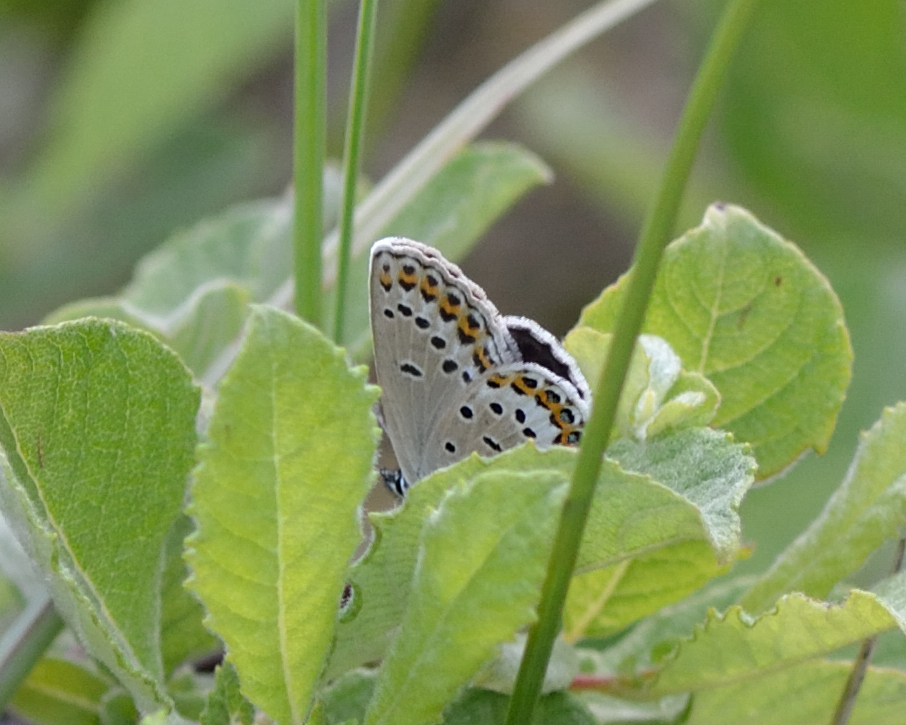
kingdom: Animalia
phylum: Arthropoda
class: Insecta
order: Lepidoptera
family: Lycaenidae
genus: Lycaeides
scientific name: Lycaeides idas
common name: Northern blue
